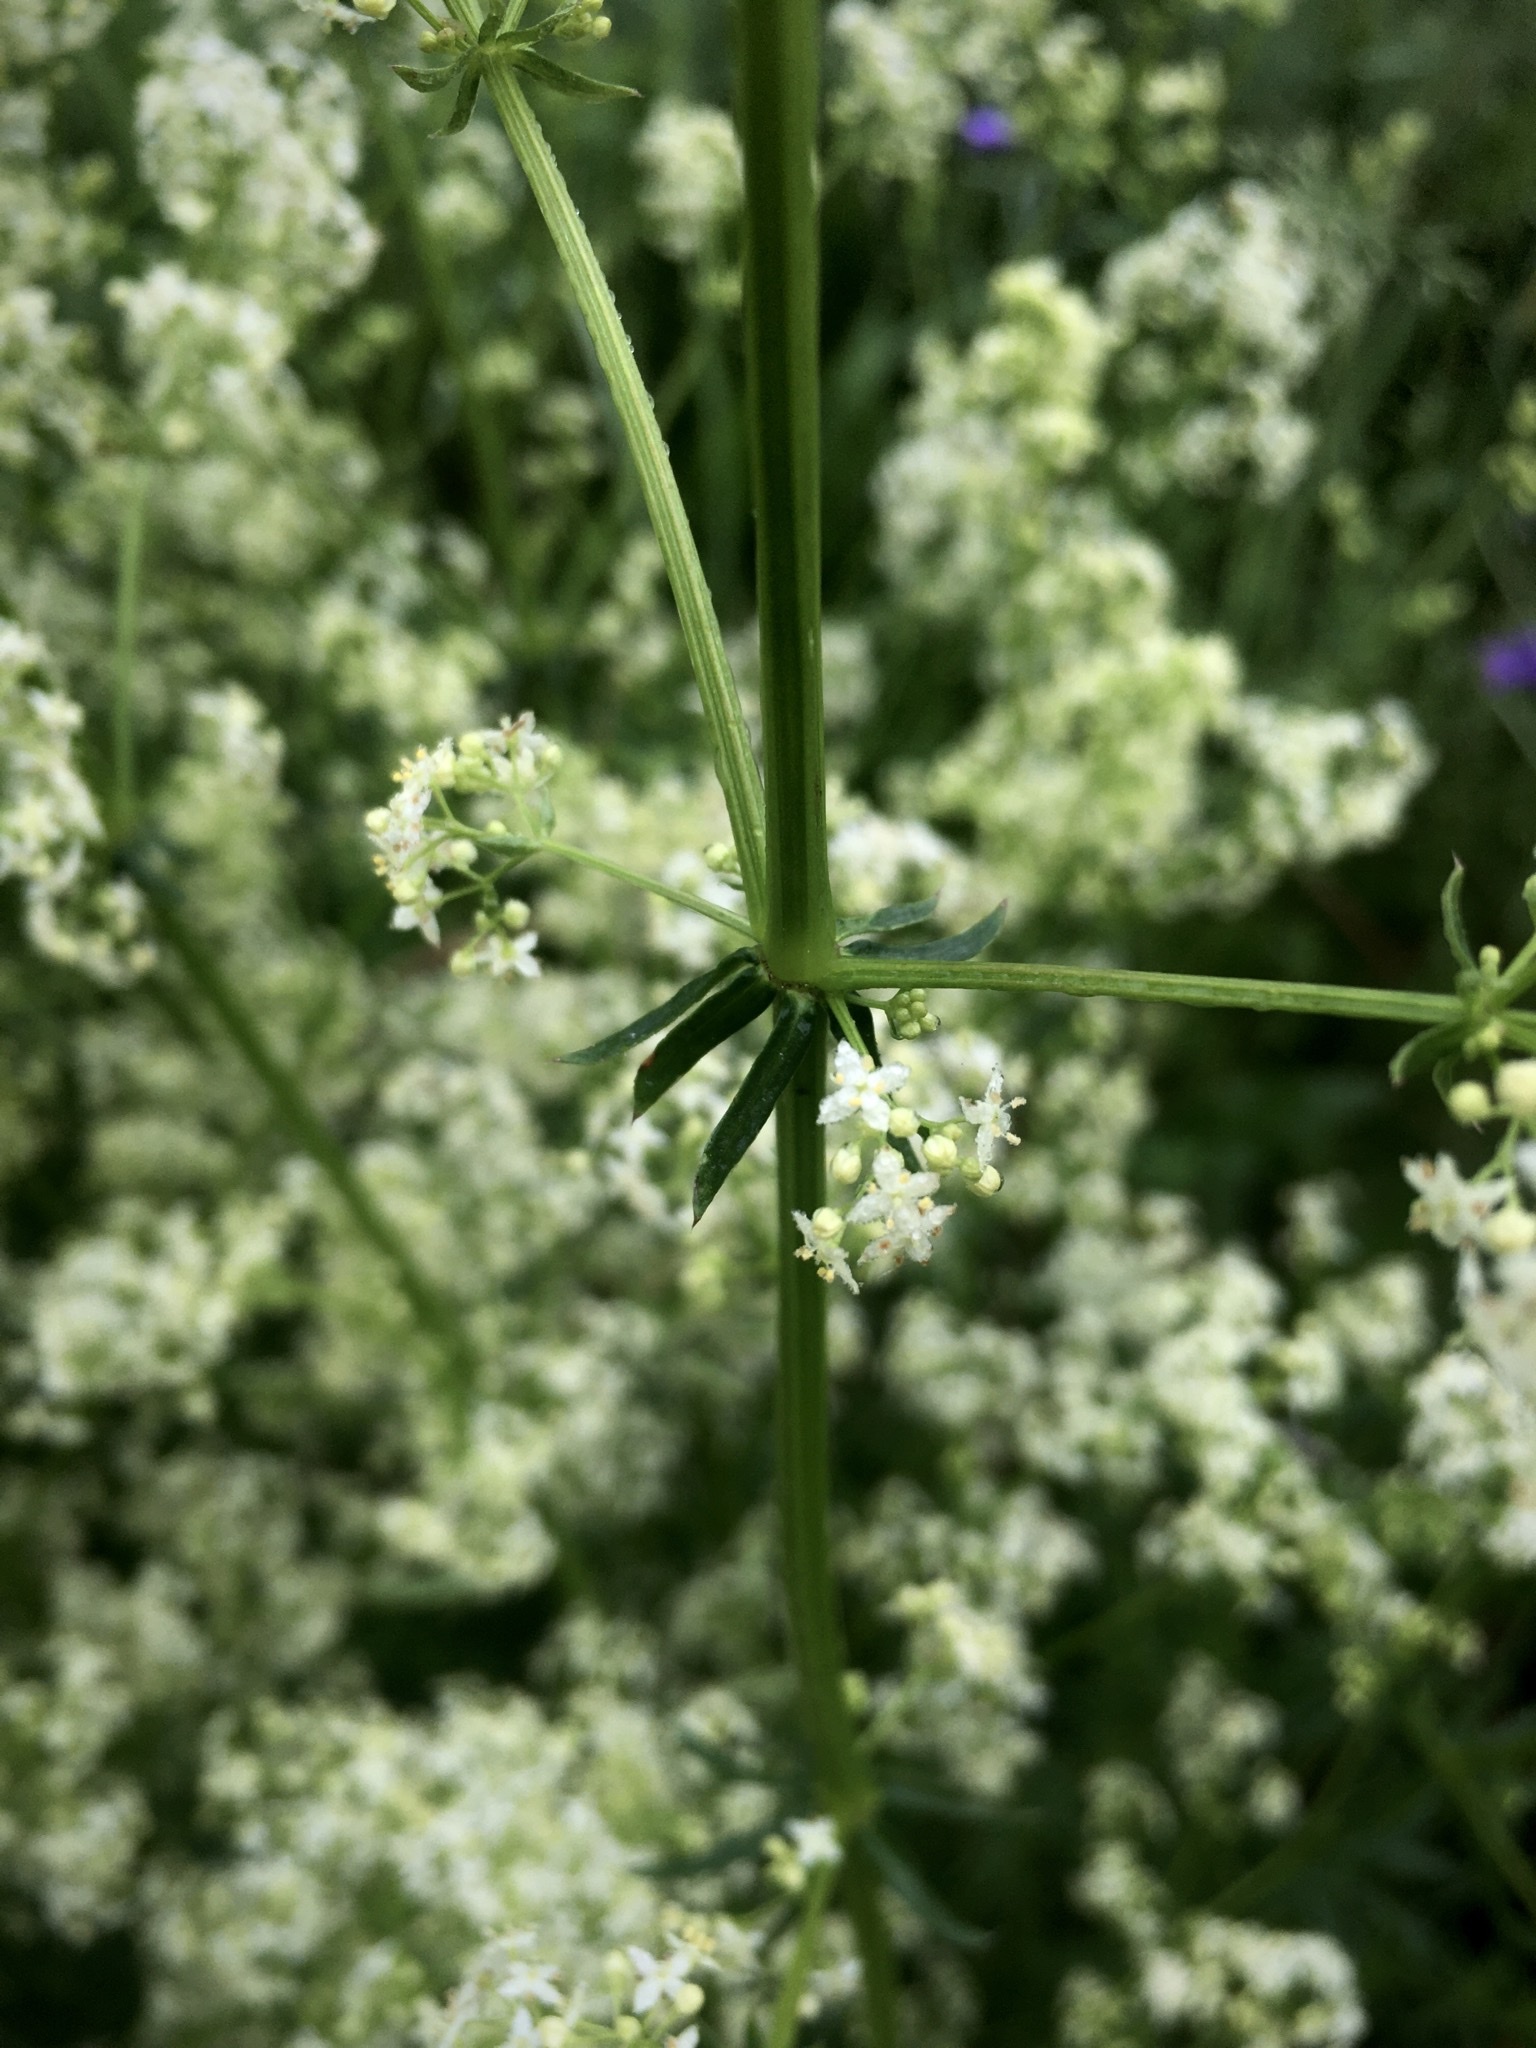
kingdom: Plantae
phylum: Tracheophyta
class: Magnoliopsida
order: Gentianales
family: Rubiaceae
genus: Galium
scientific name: Galium album
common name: White bedstraw
